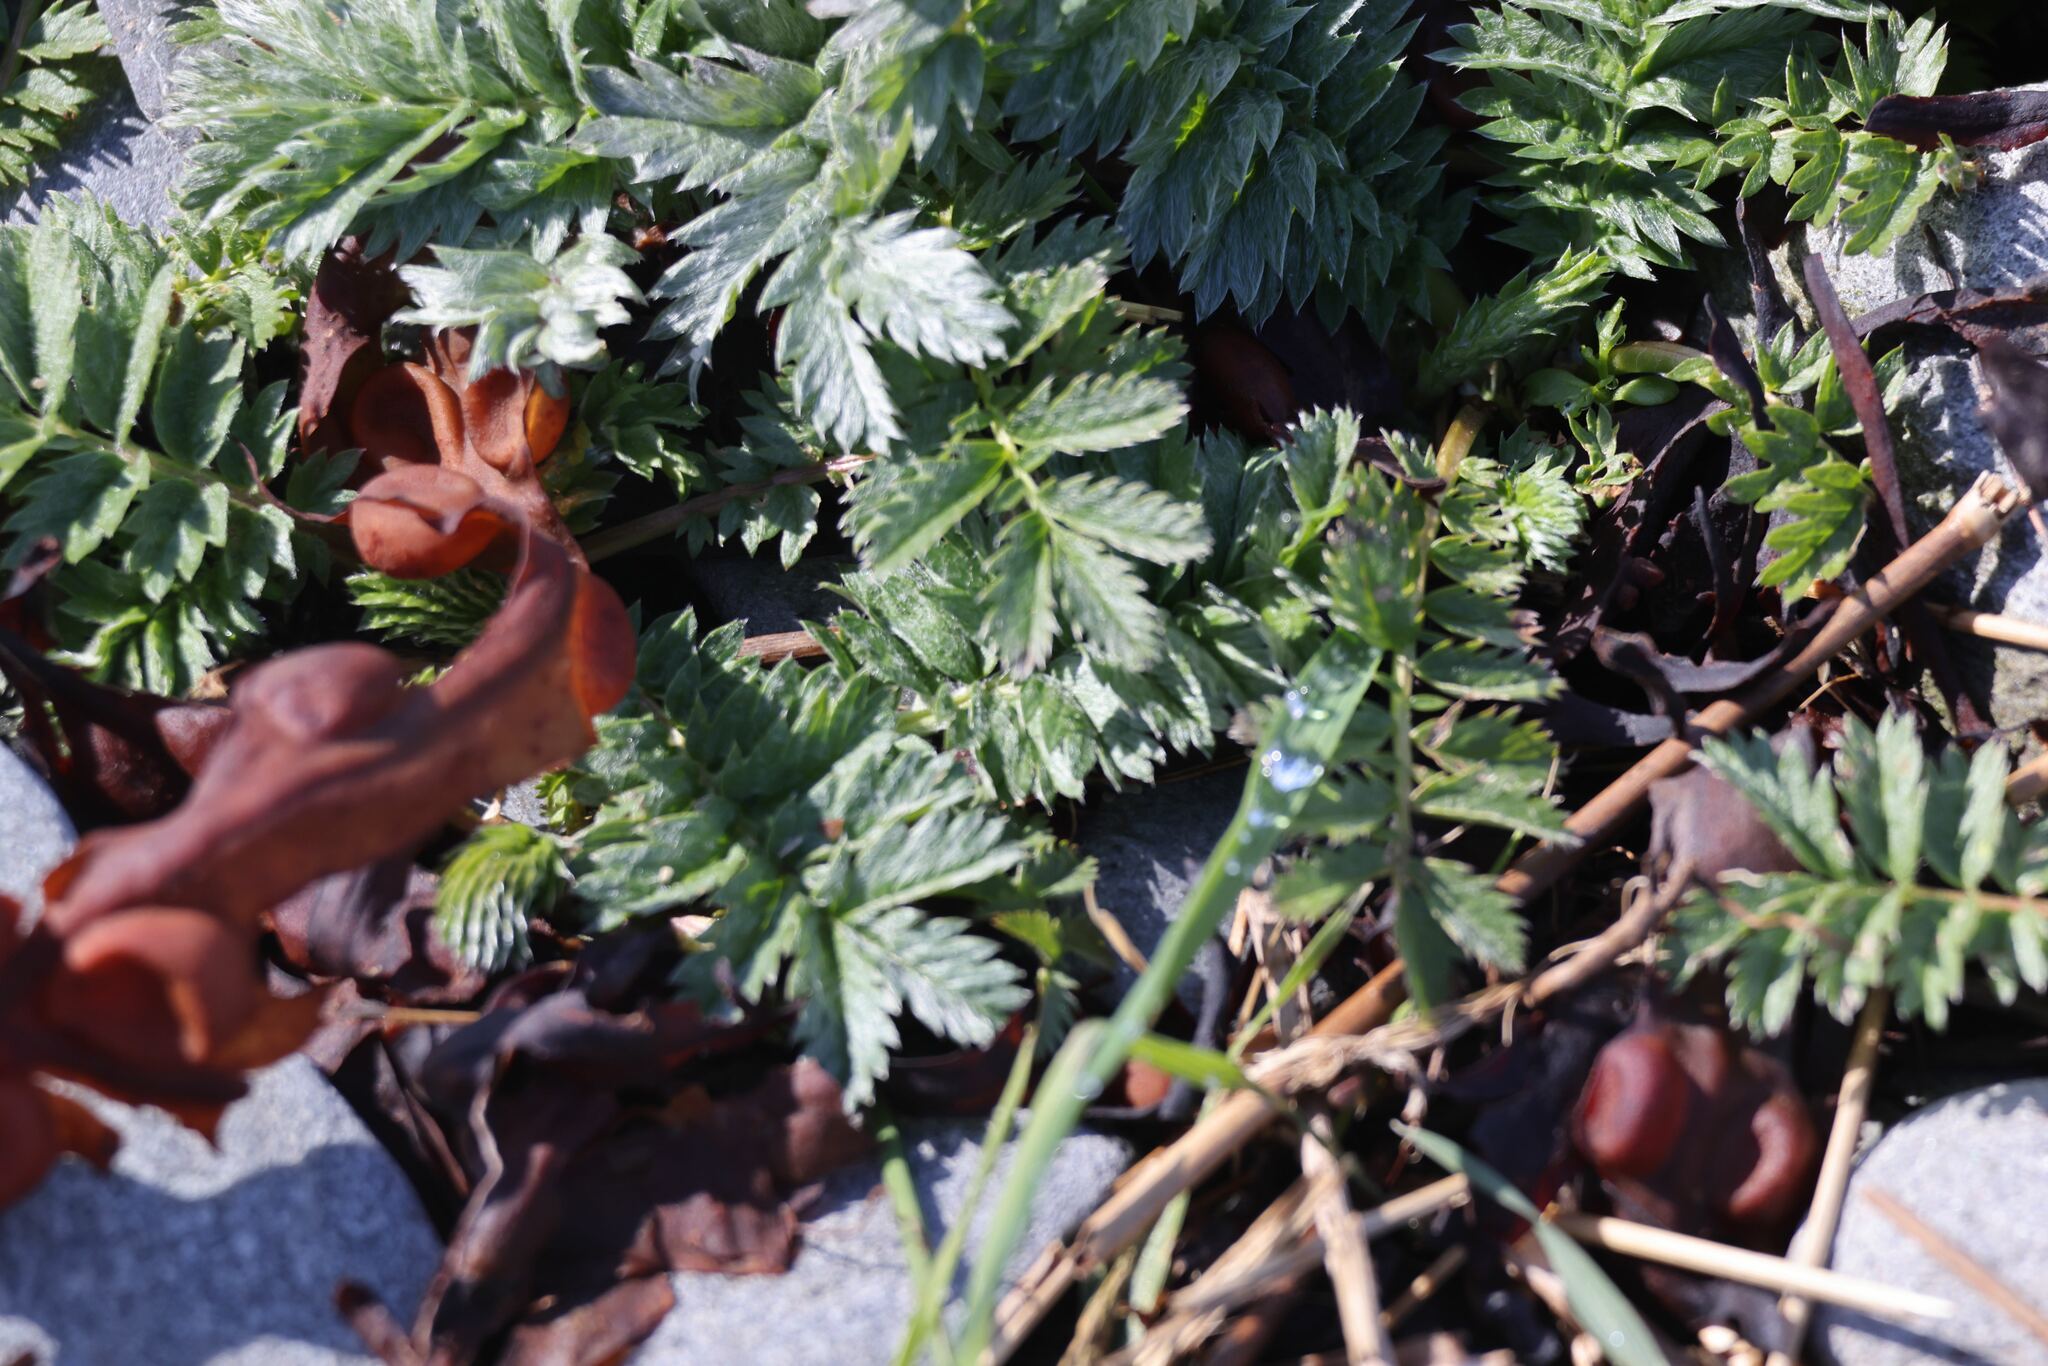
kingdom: Plantae
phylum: Tracheophyta
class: Magnoliopsida
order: Rosales
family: Rosaceae
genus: Argentina
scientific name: Argentina anserina
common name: Common silverweed
